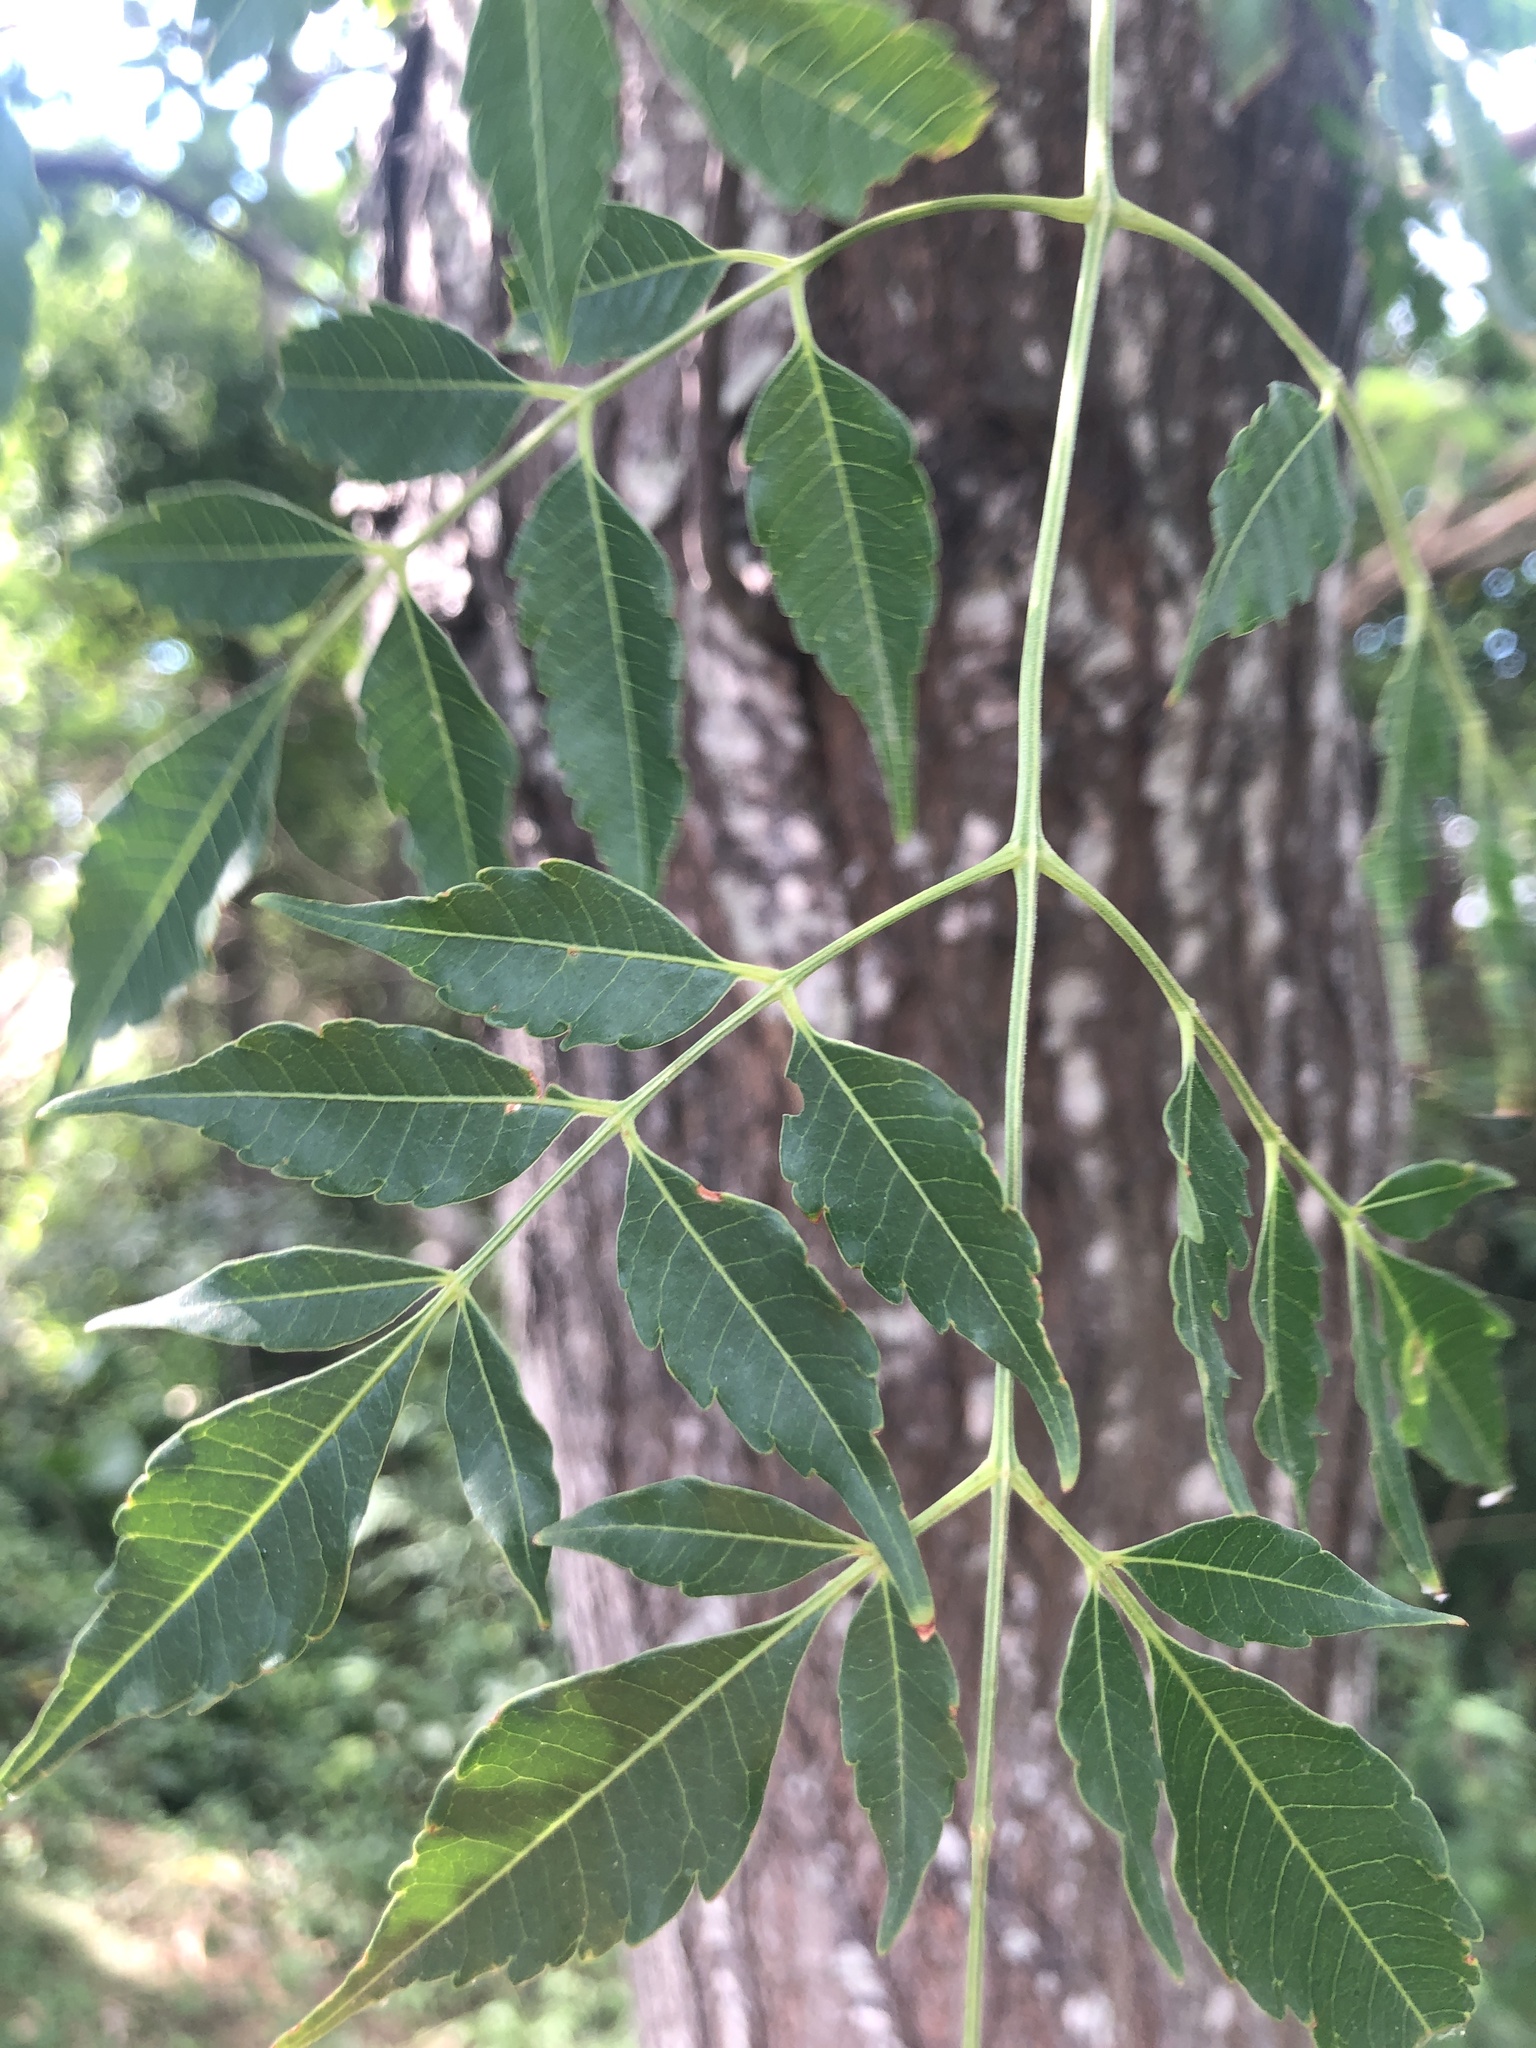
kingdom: Plantae
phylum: Tracheophyta
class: Magnoliopsida
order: Sapindales
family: Meliaceae
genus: Melia
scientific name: Melia azedarach
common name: Chinaberrytree
